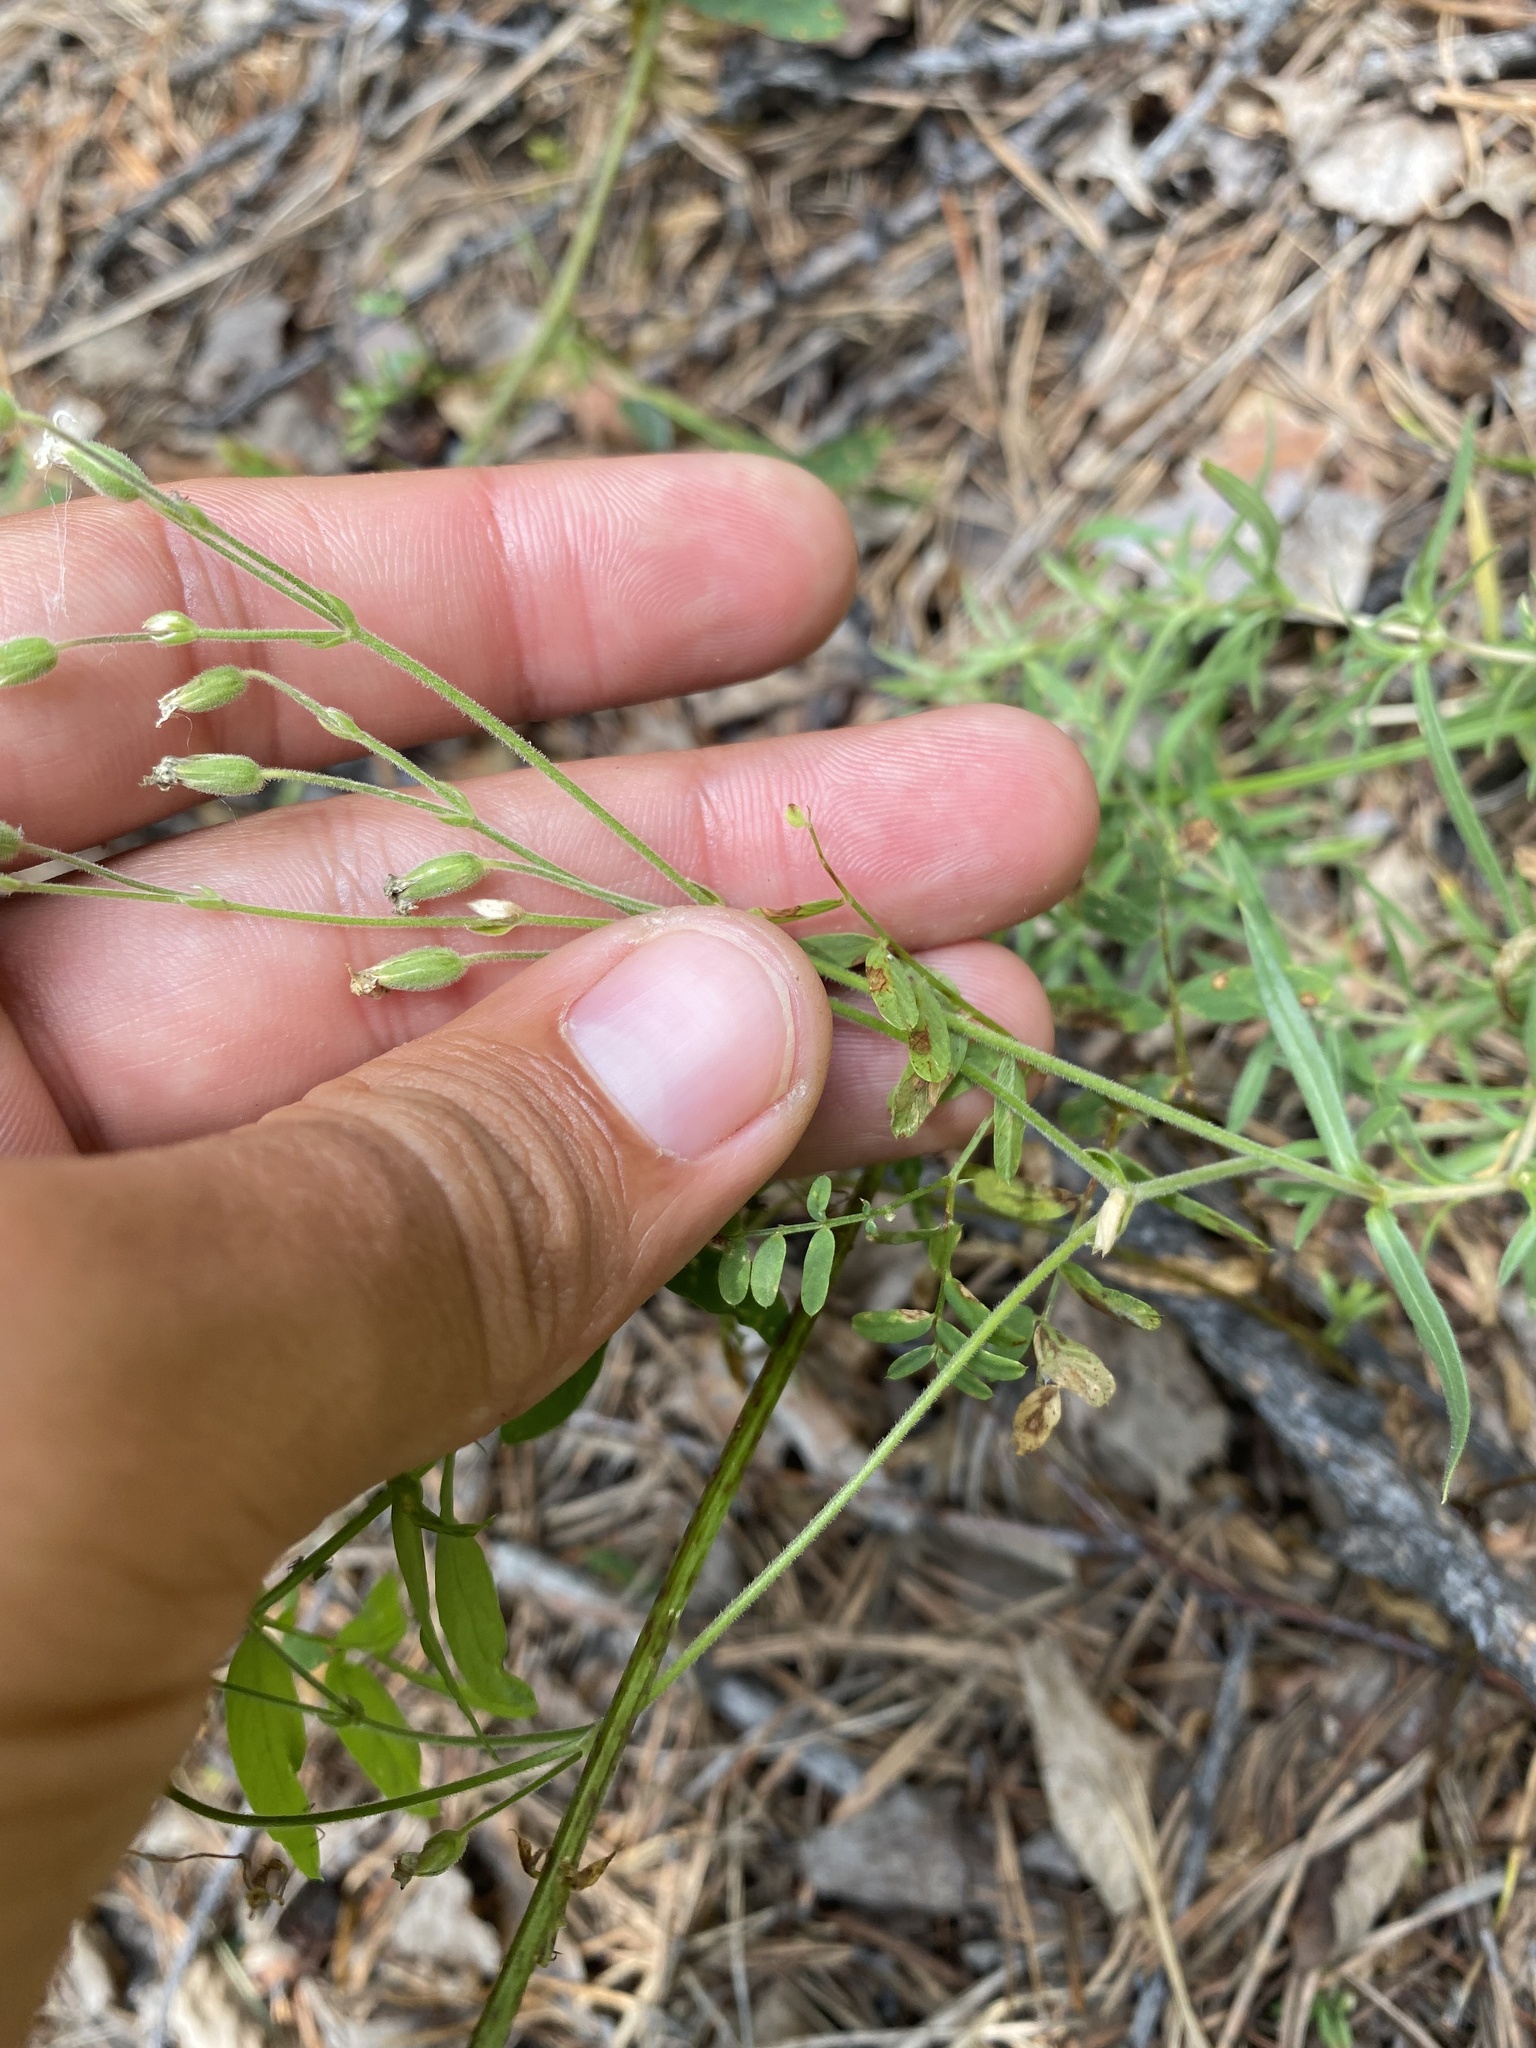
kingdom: Plantae
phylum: Tracheophyta
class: Magnoliopsida
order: Caryophyllales
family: Caryophyllaceae
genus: Cerastium
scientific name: Cerastium arvense
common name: Field mouse-ear
